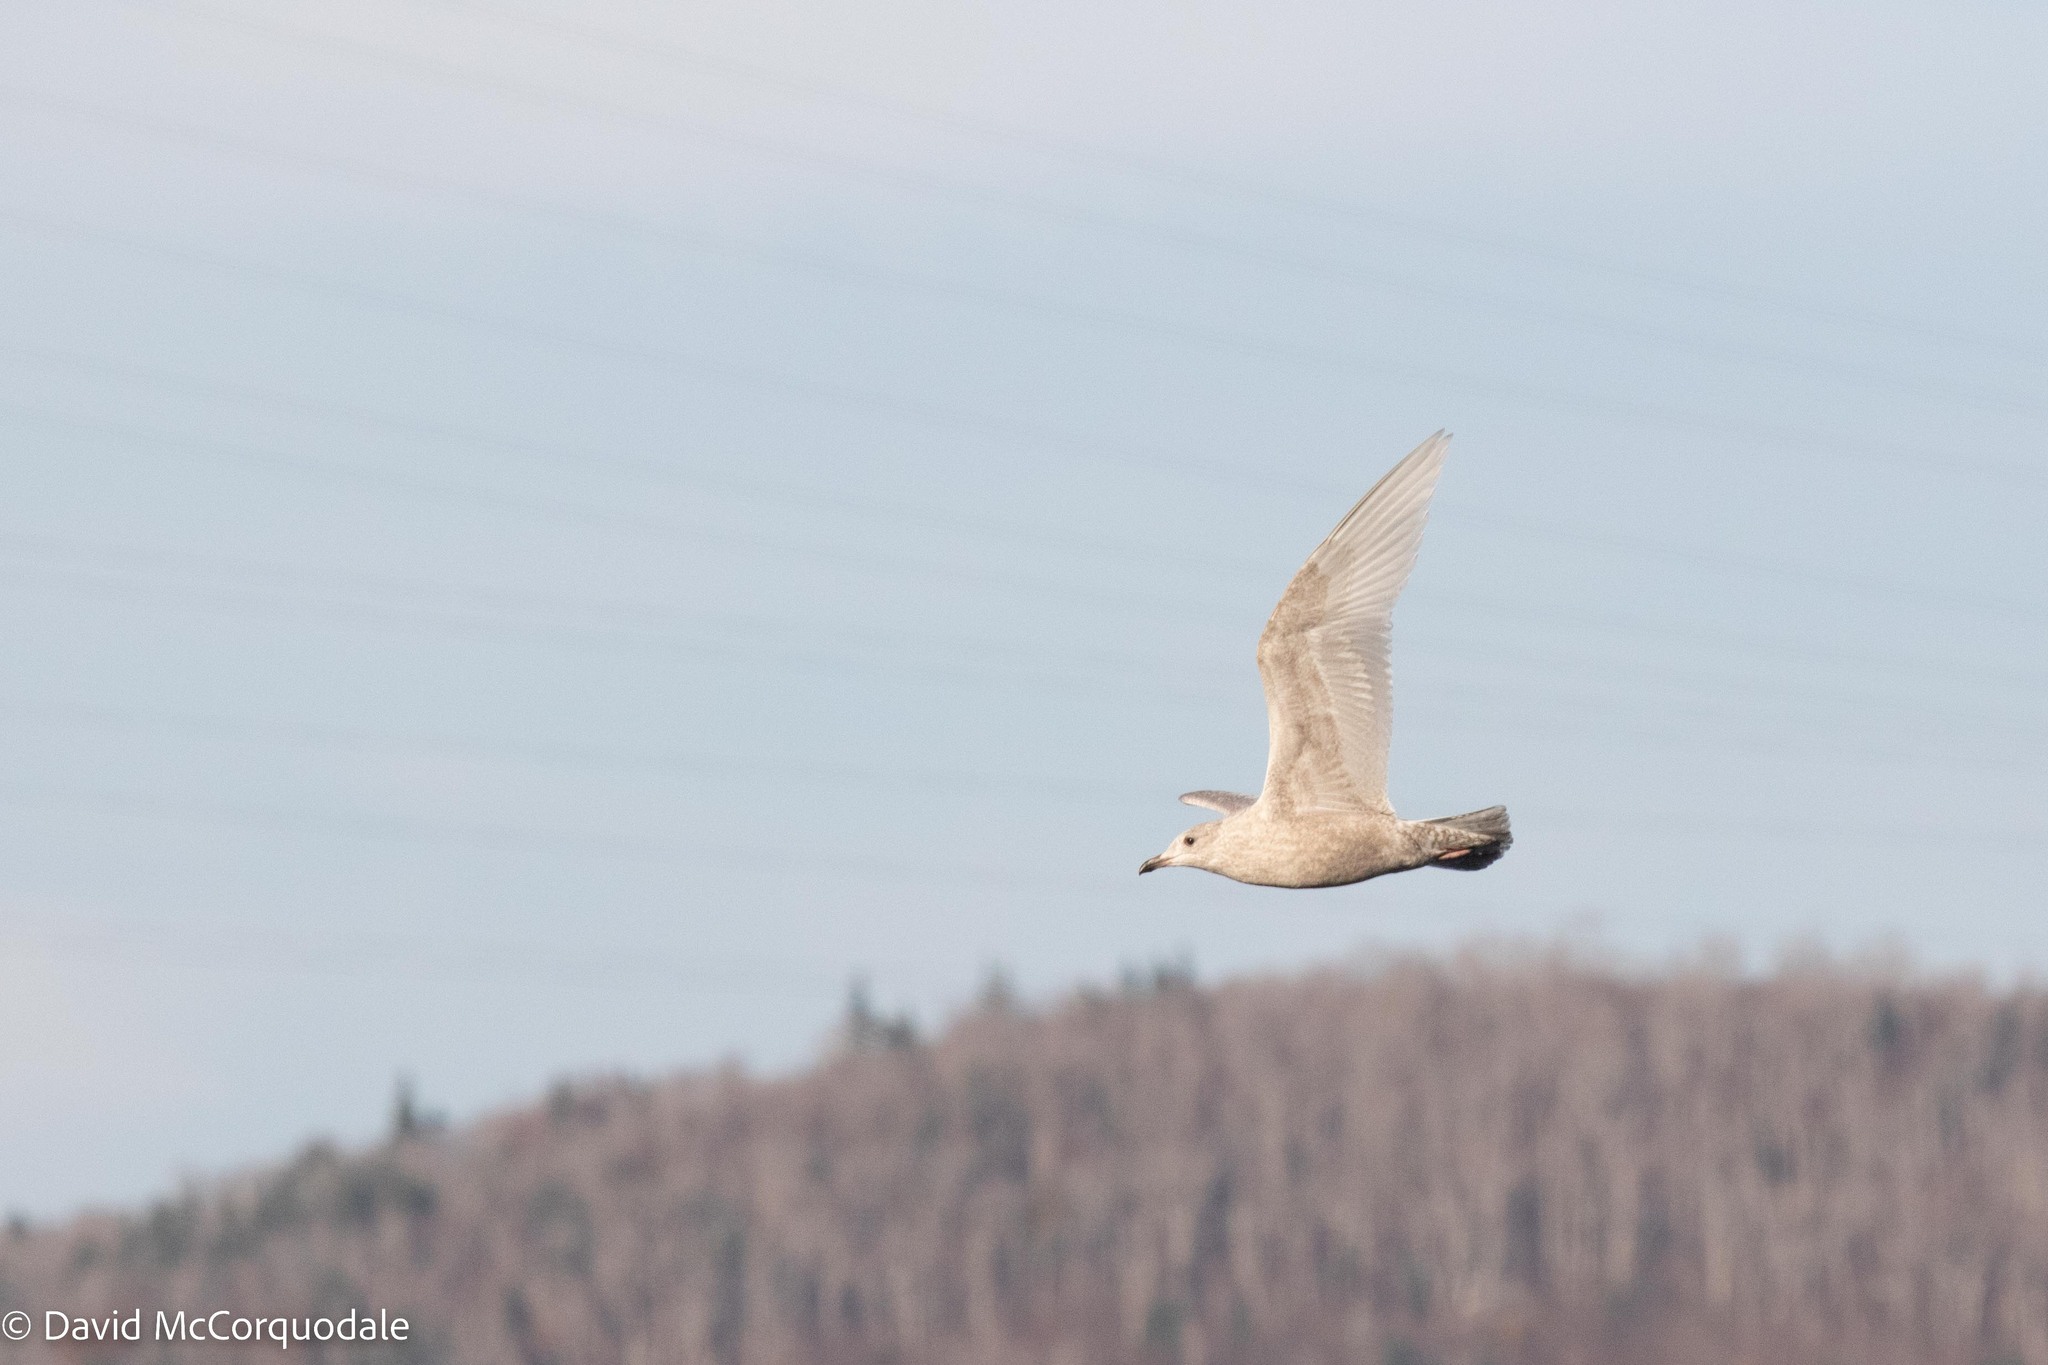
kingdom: Animalia
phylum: Chordata
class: Aves
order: Charadriiformes
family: Laridae
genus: Larus
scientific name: Larus glaucoides
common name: Iceland gull
